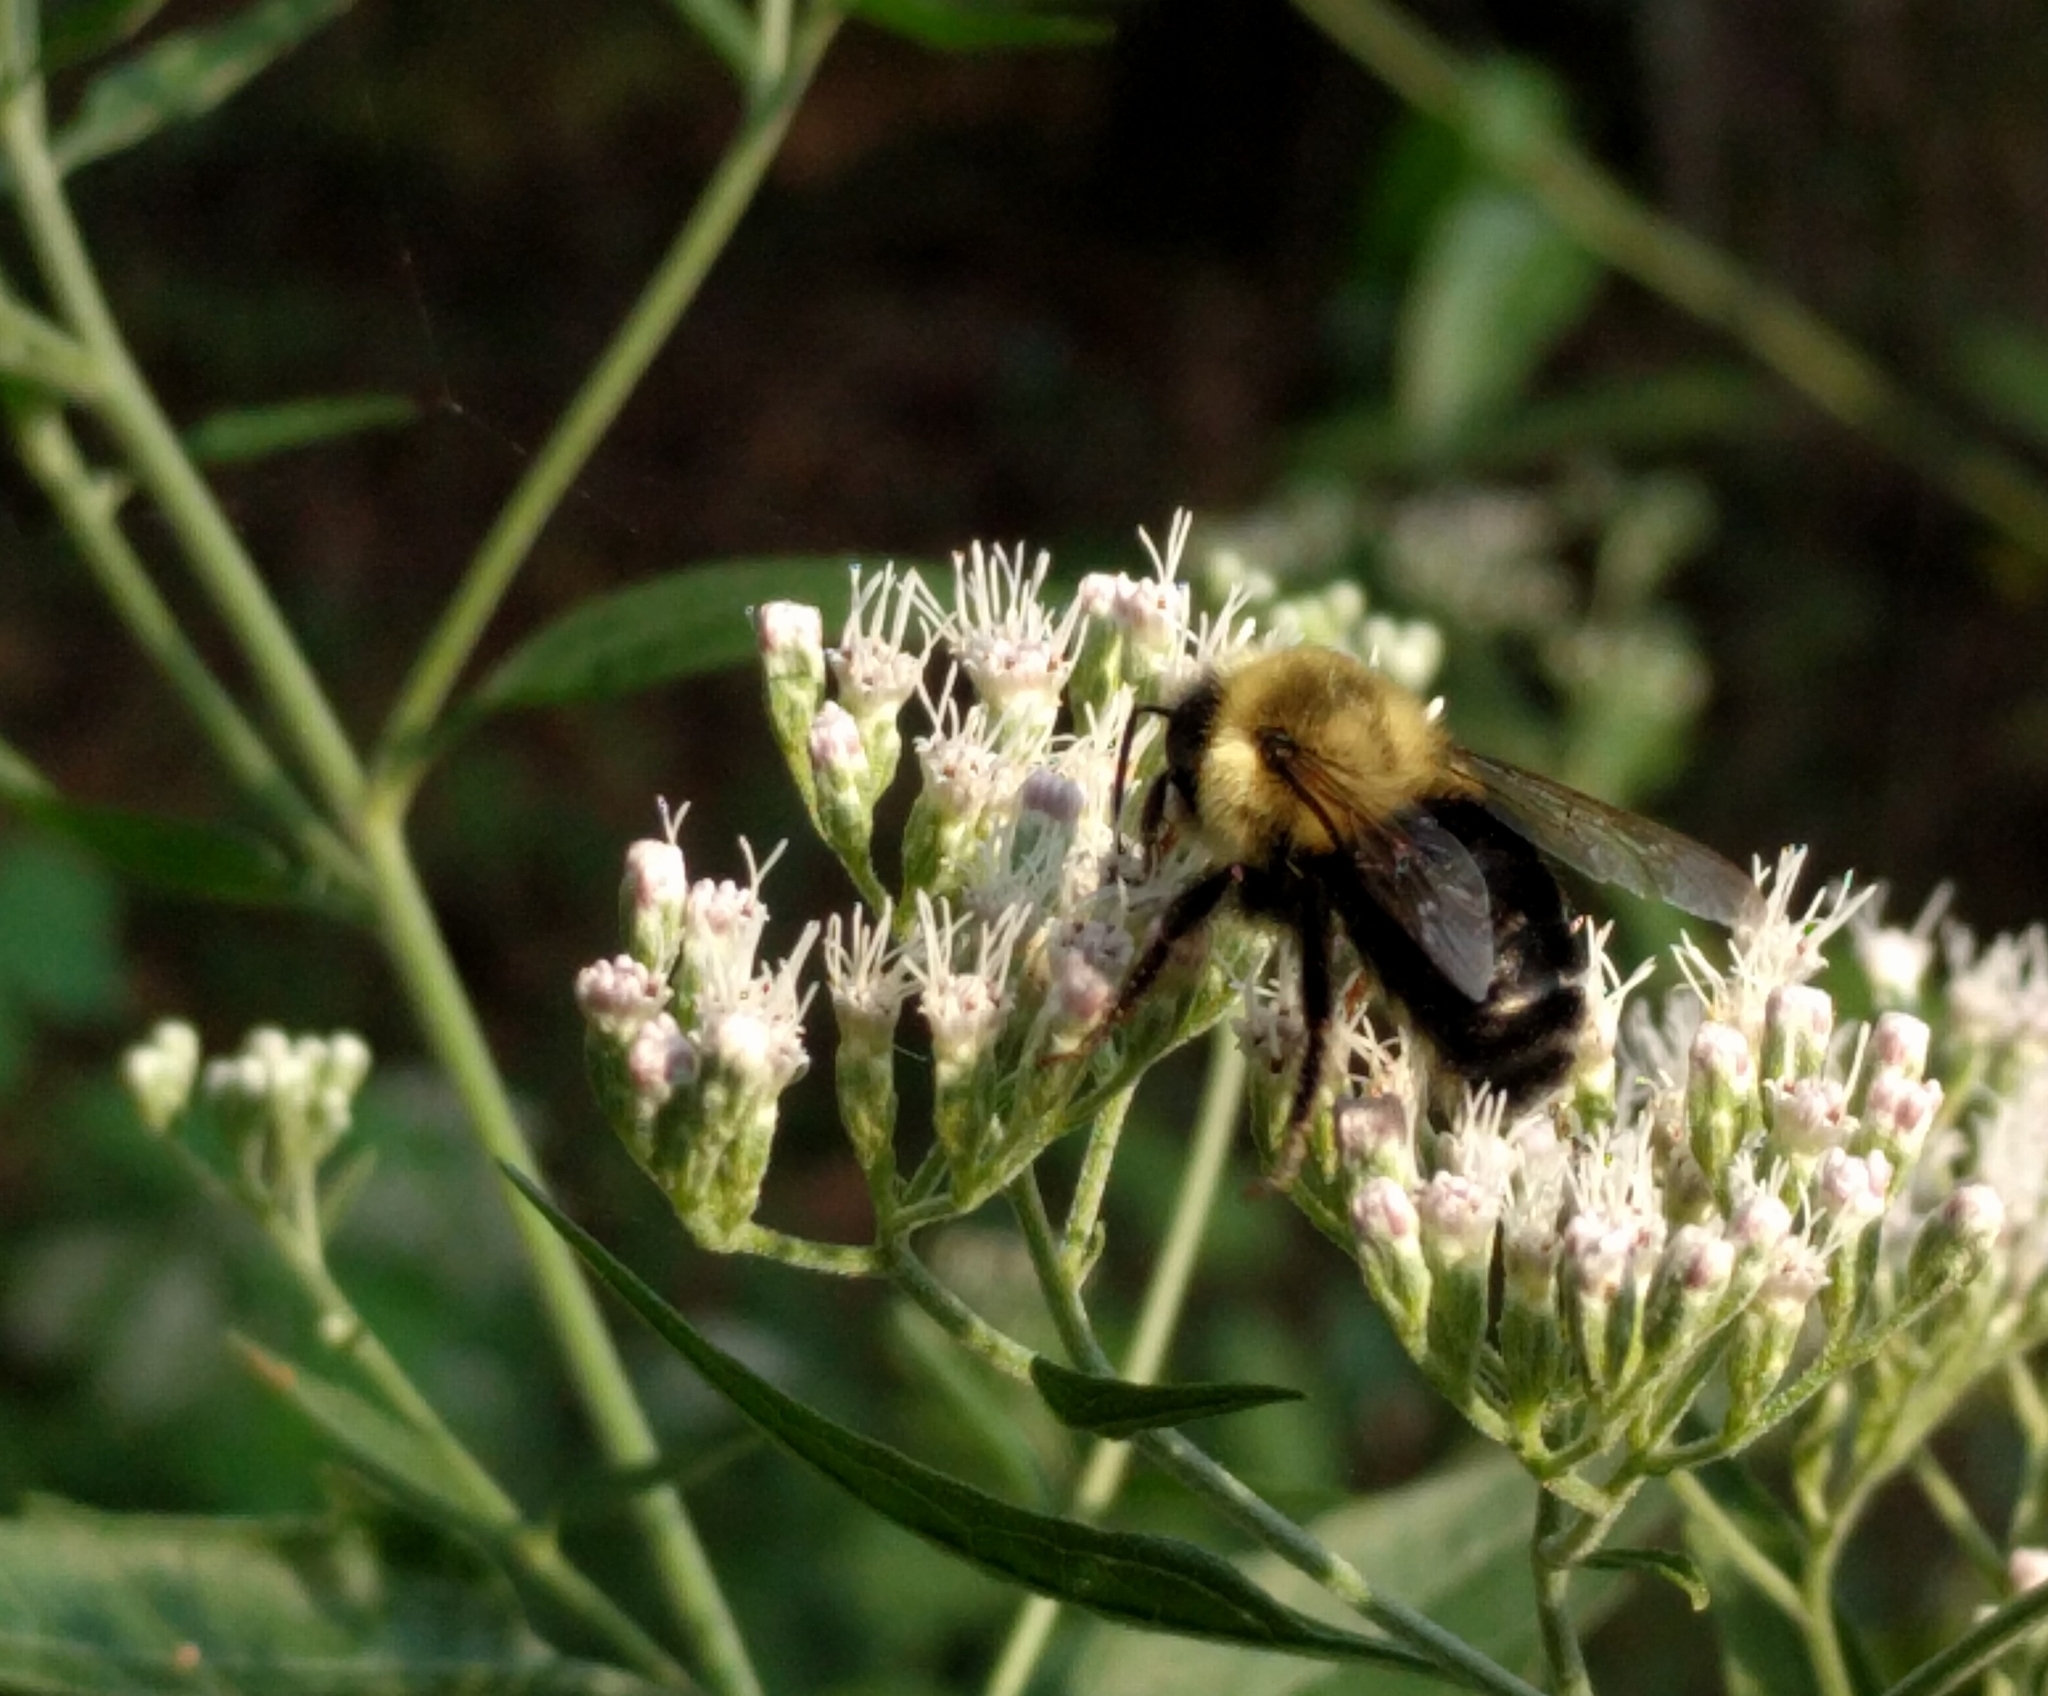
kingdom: Animalia
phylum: Arthropoda
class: Insecta
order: Hymenoptera
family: Apidae
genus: Bombus
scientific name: Bombus impatiens
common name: Common eastern bumble bee
